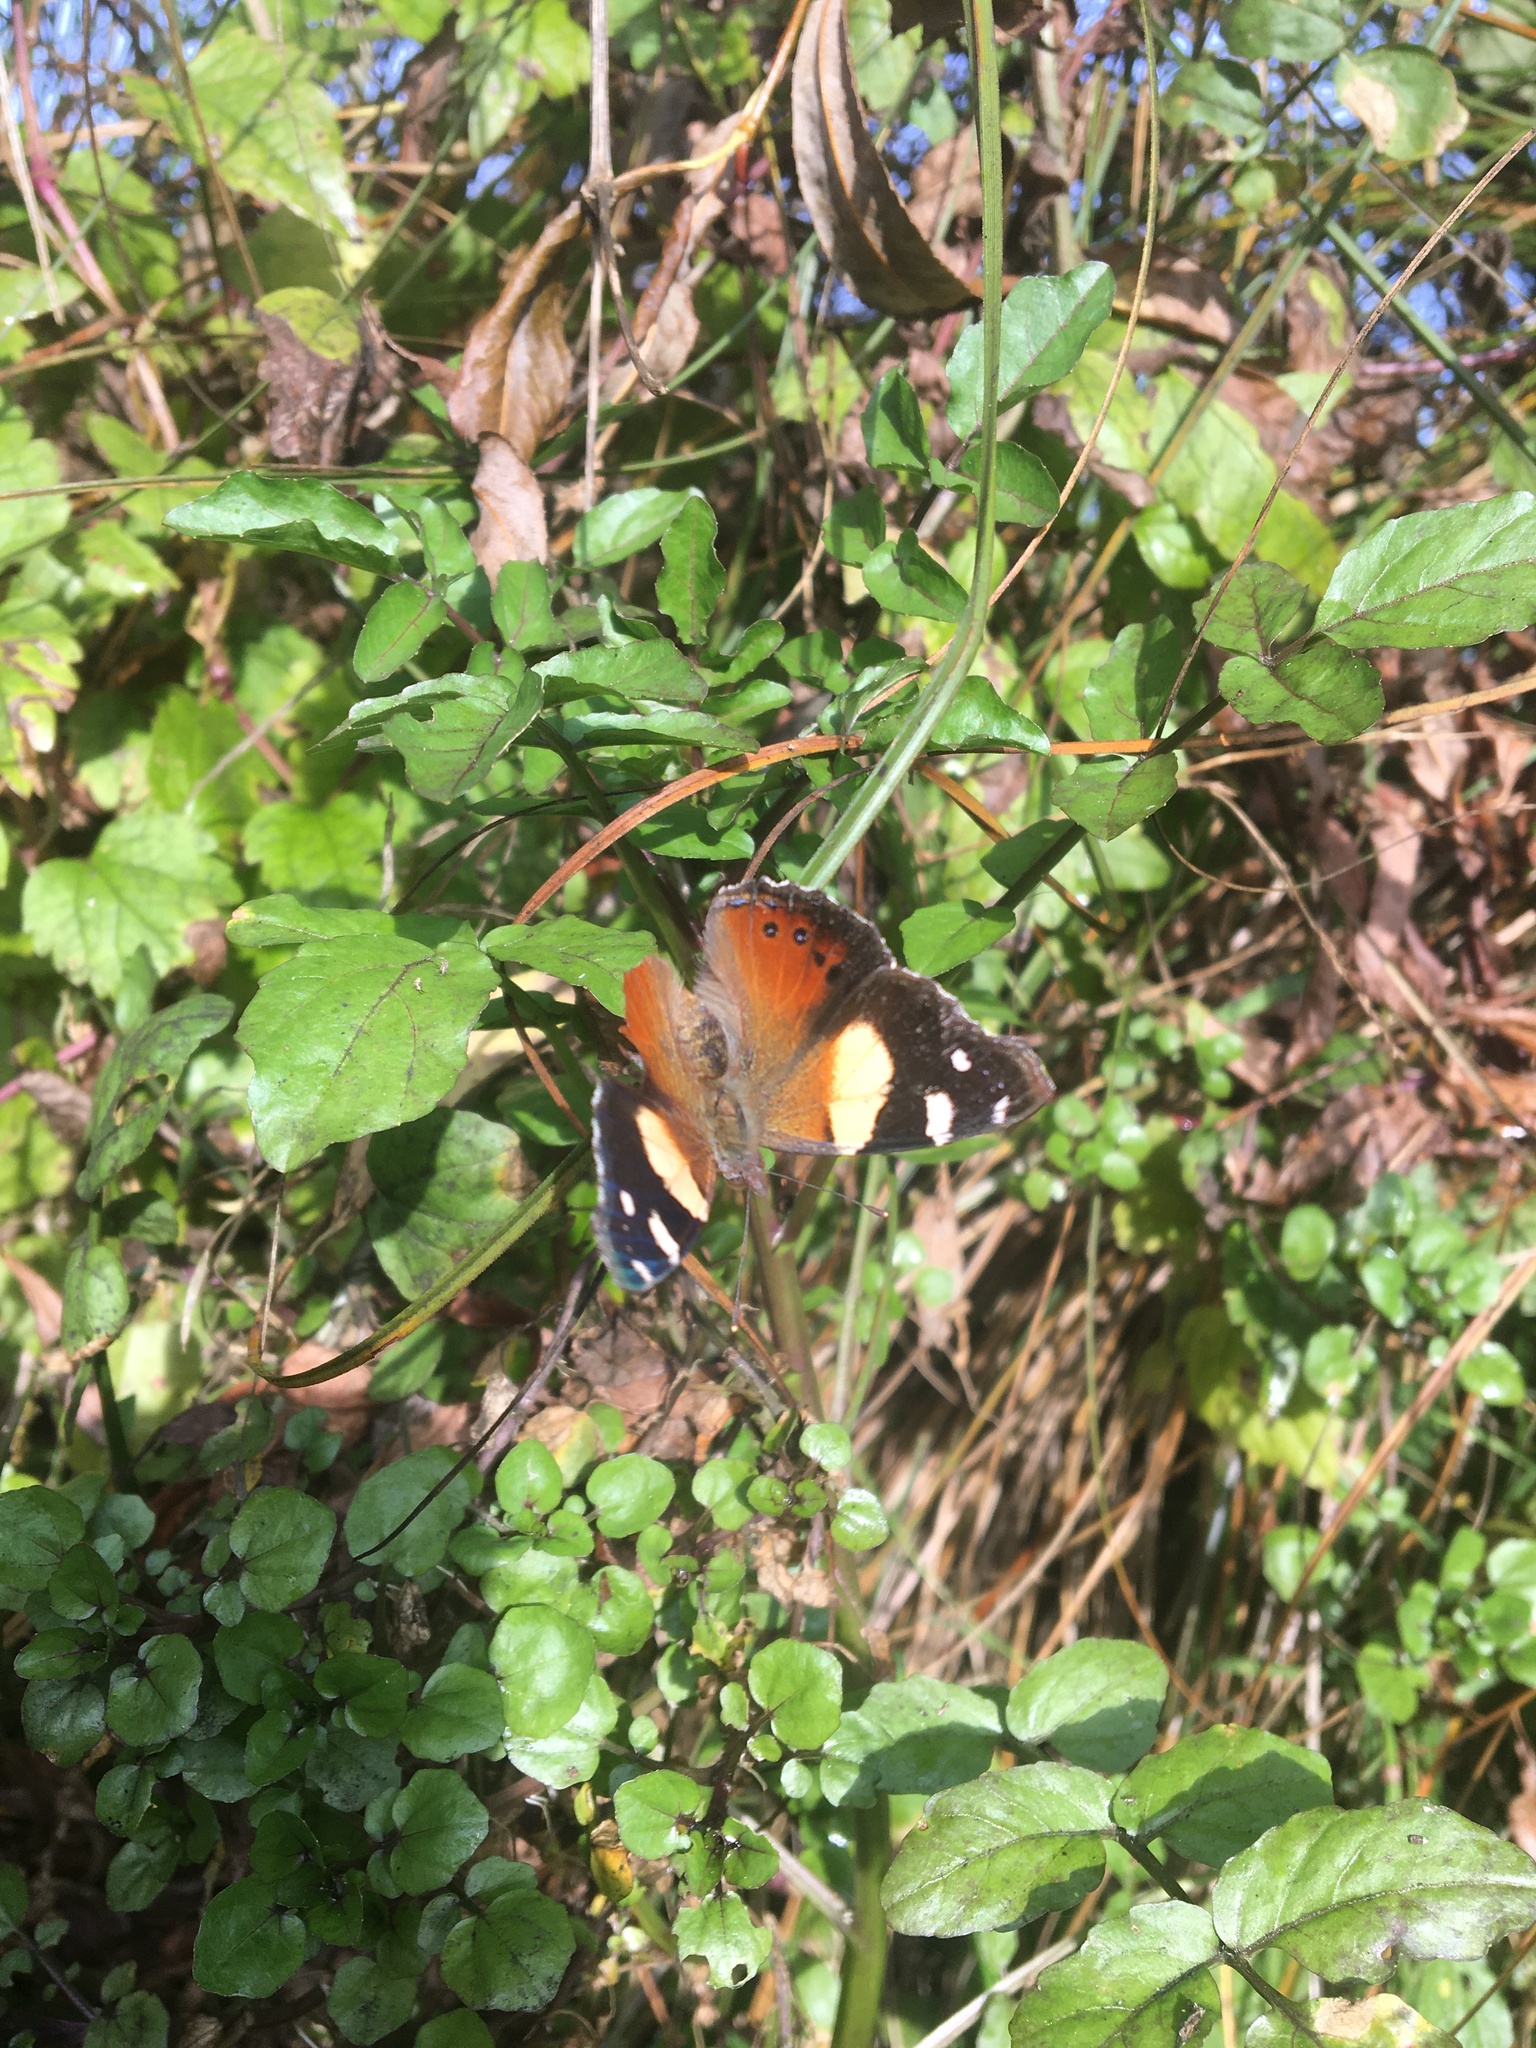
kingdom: Animalia
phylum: Arthropoda
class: Insecta
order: Lepidoptera
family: Nymphalidae
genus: Vanessa
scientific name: Vanessa itea
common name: Yellow admiral
